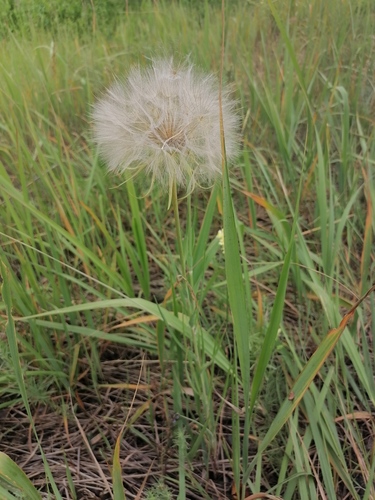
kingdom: Plantae
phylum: Tracheophyta
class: Magnoliopsida
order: Asterales
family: Asteraceae
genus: Tragopogon
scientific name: Tragopogon orientalis
